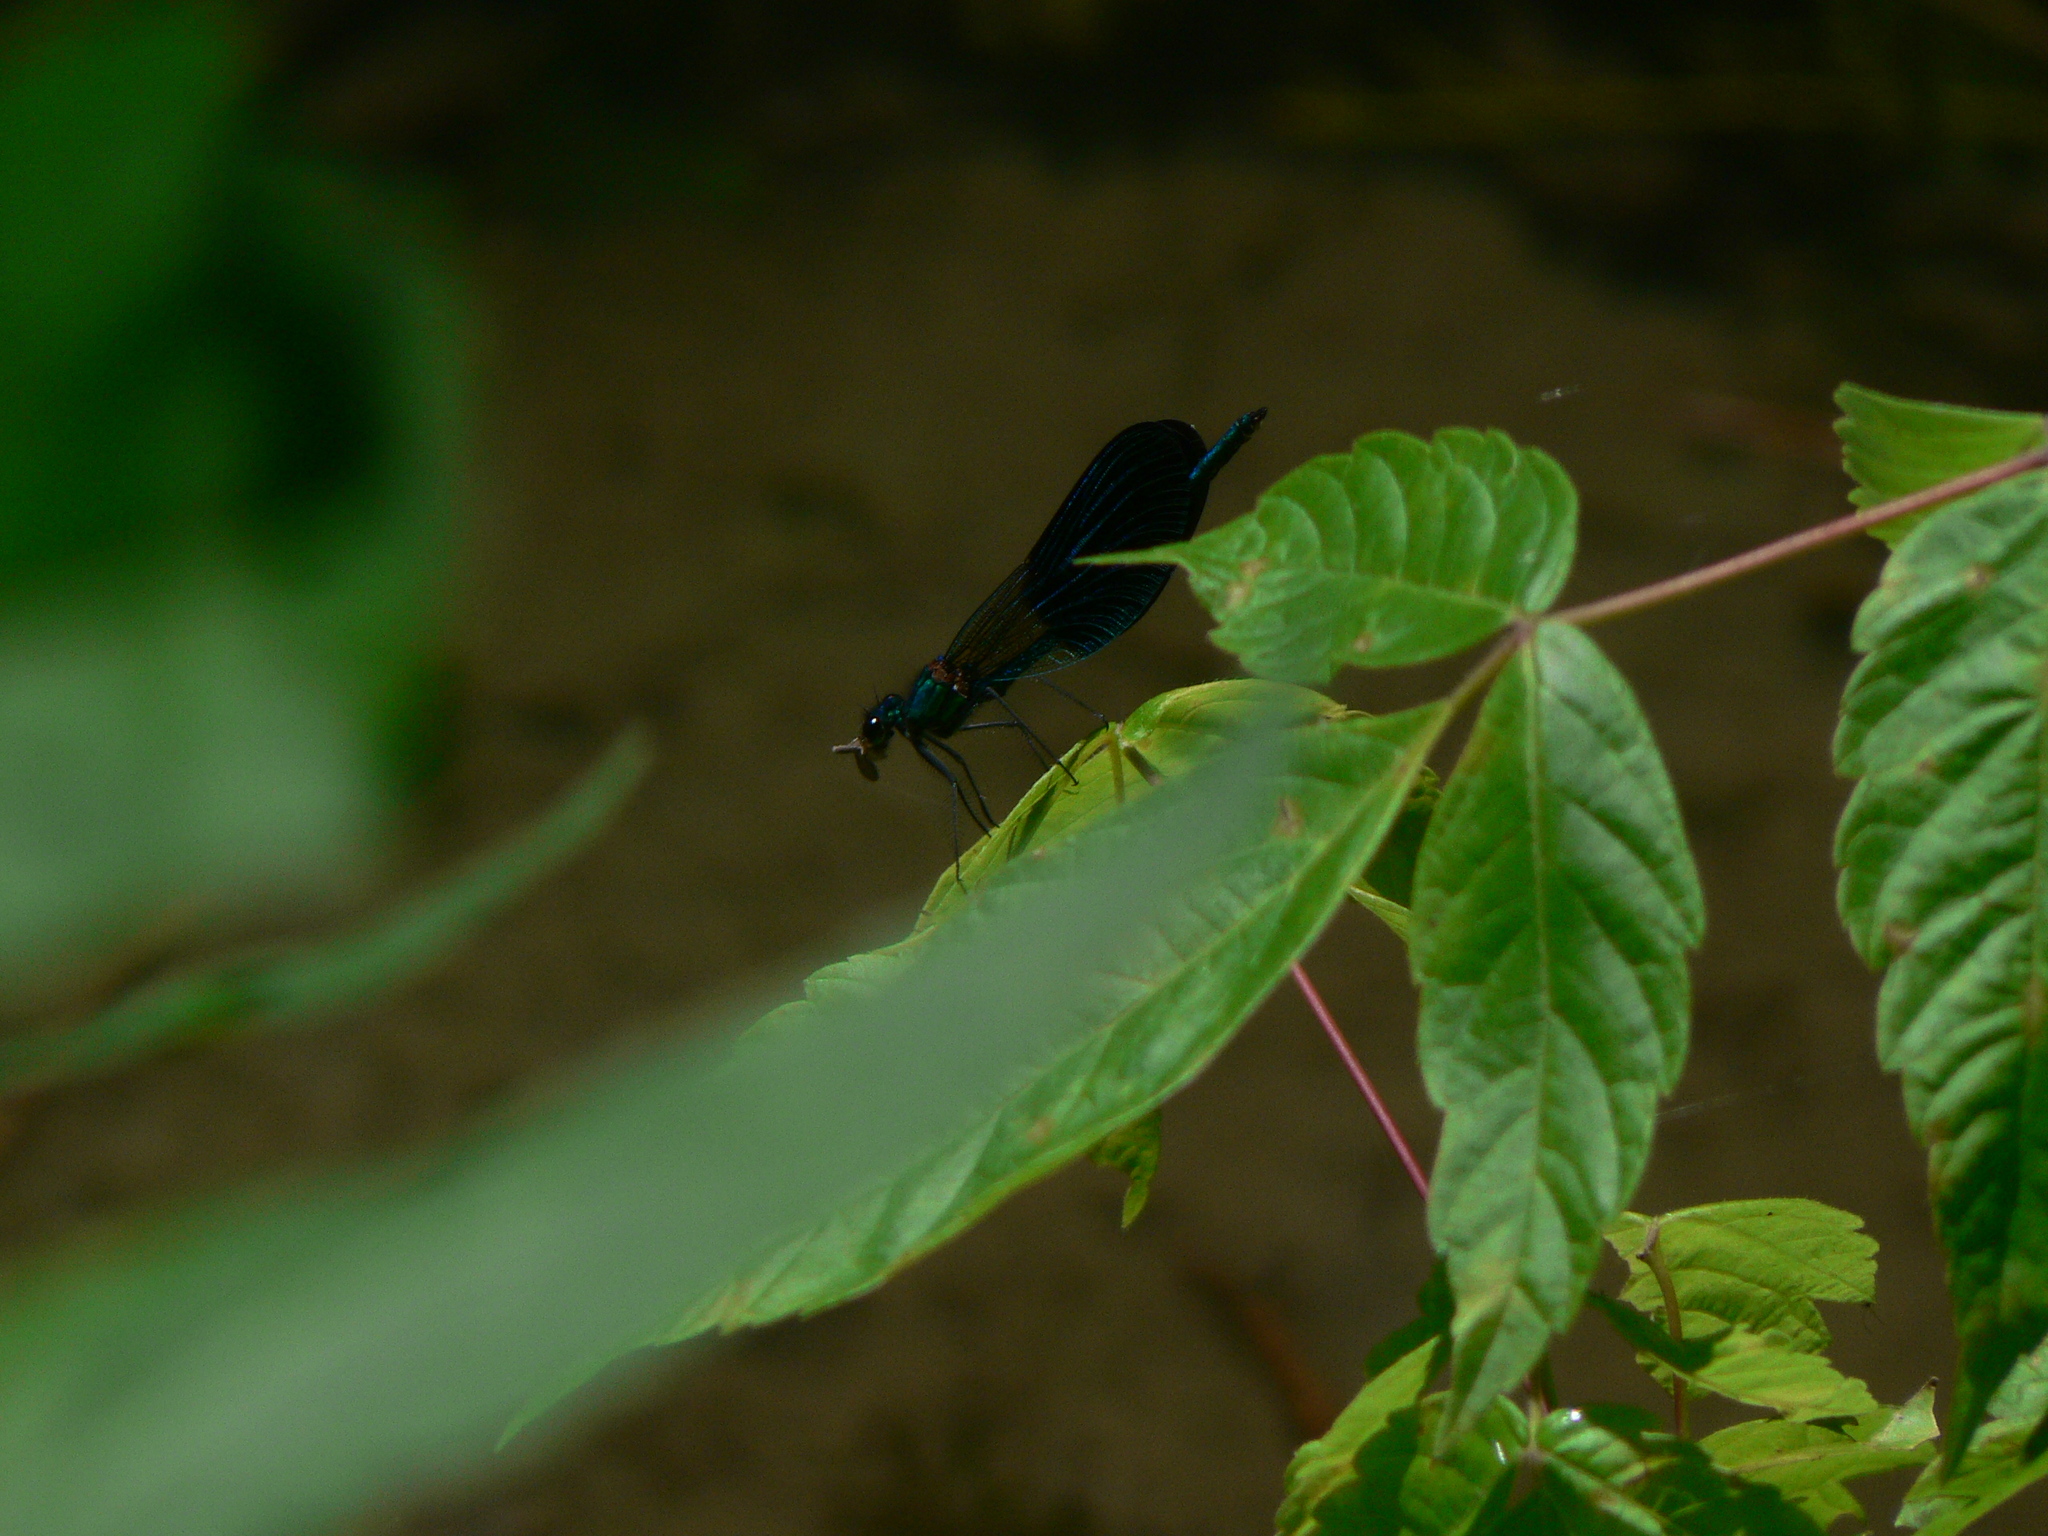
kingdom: Animalia
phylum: Arthropoda
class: Insecta
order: Odonata
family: Calopterygidae
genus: Calopteryx
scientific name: Calopteryx xanthostoma
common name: Western demoiselle
